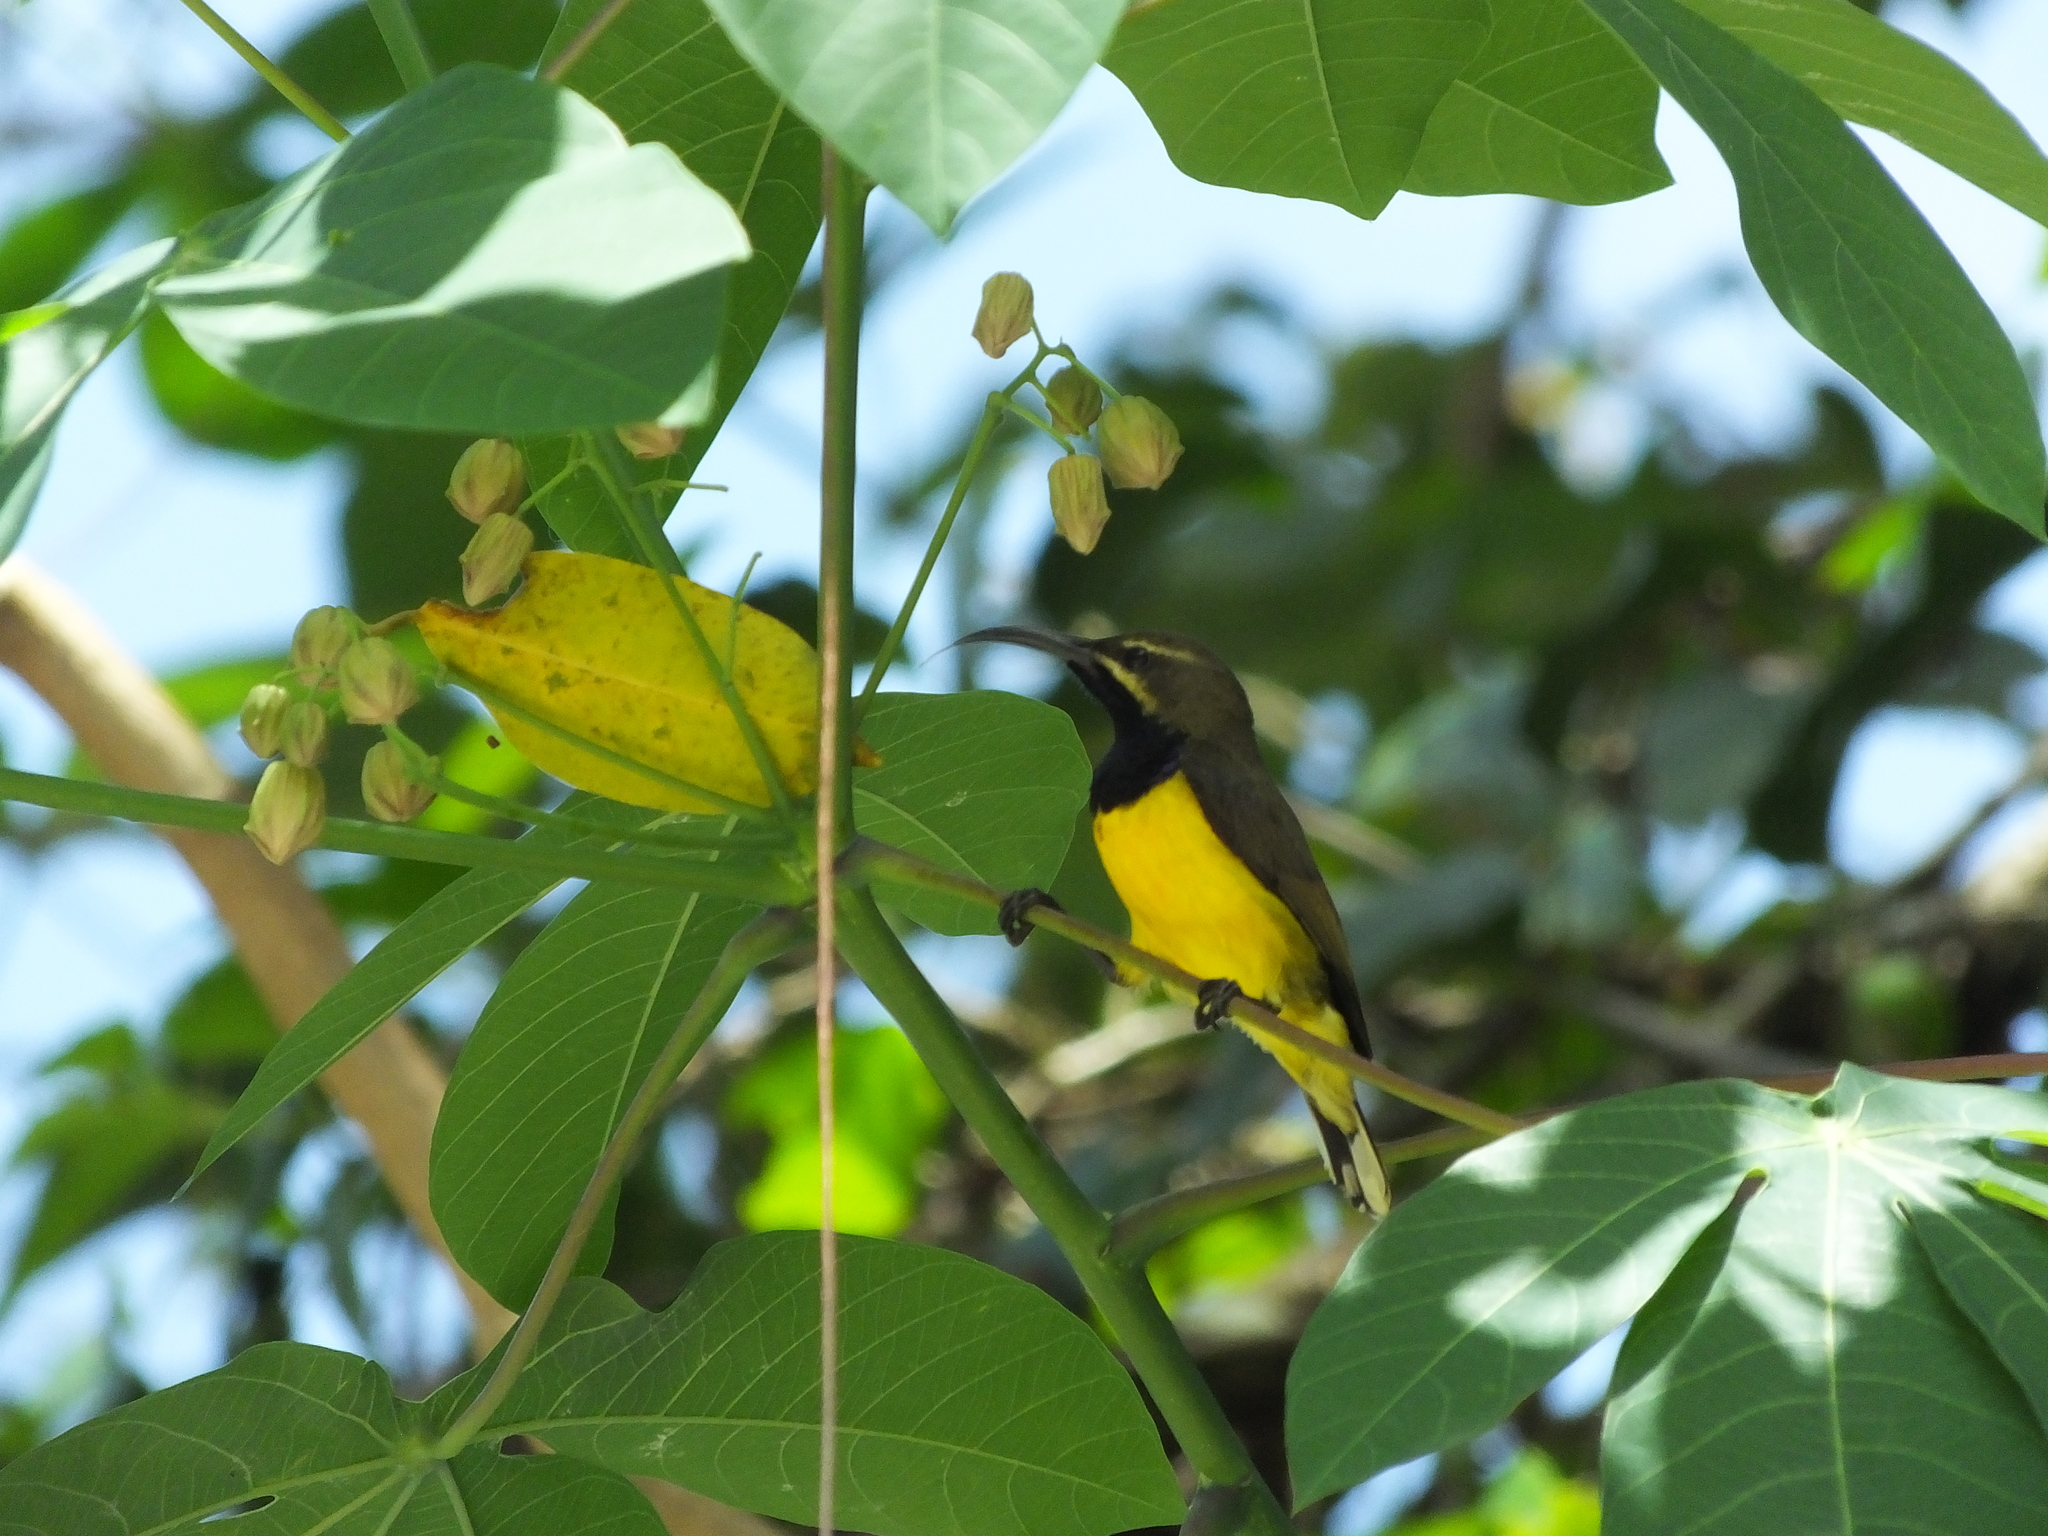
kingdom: Animalia
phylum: Chordata
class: Aves
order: Passeriformes
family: Nectariniidae
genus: Cinnyris
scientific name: Cinnyris
